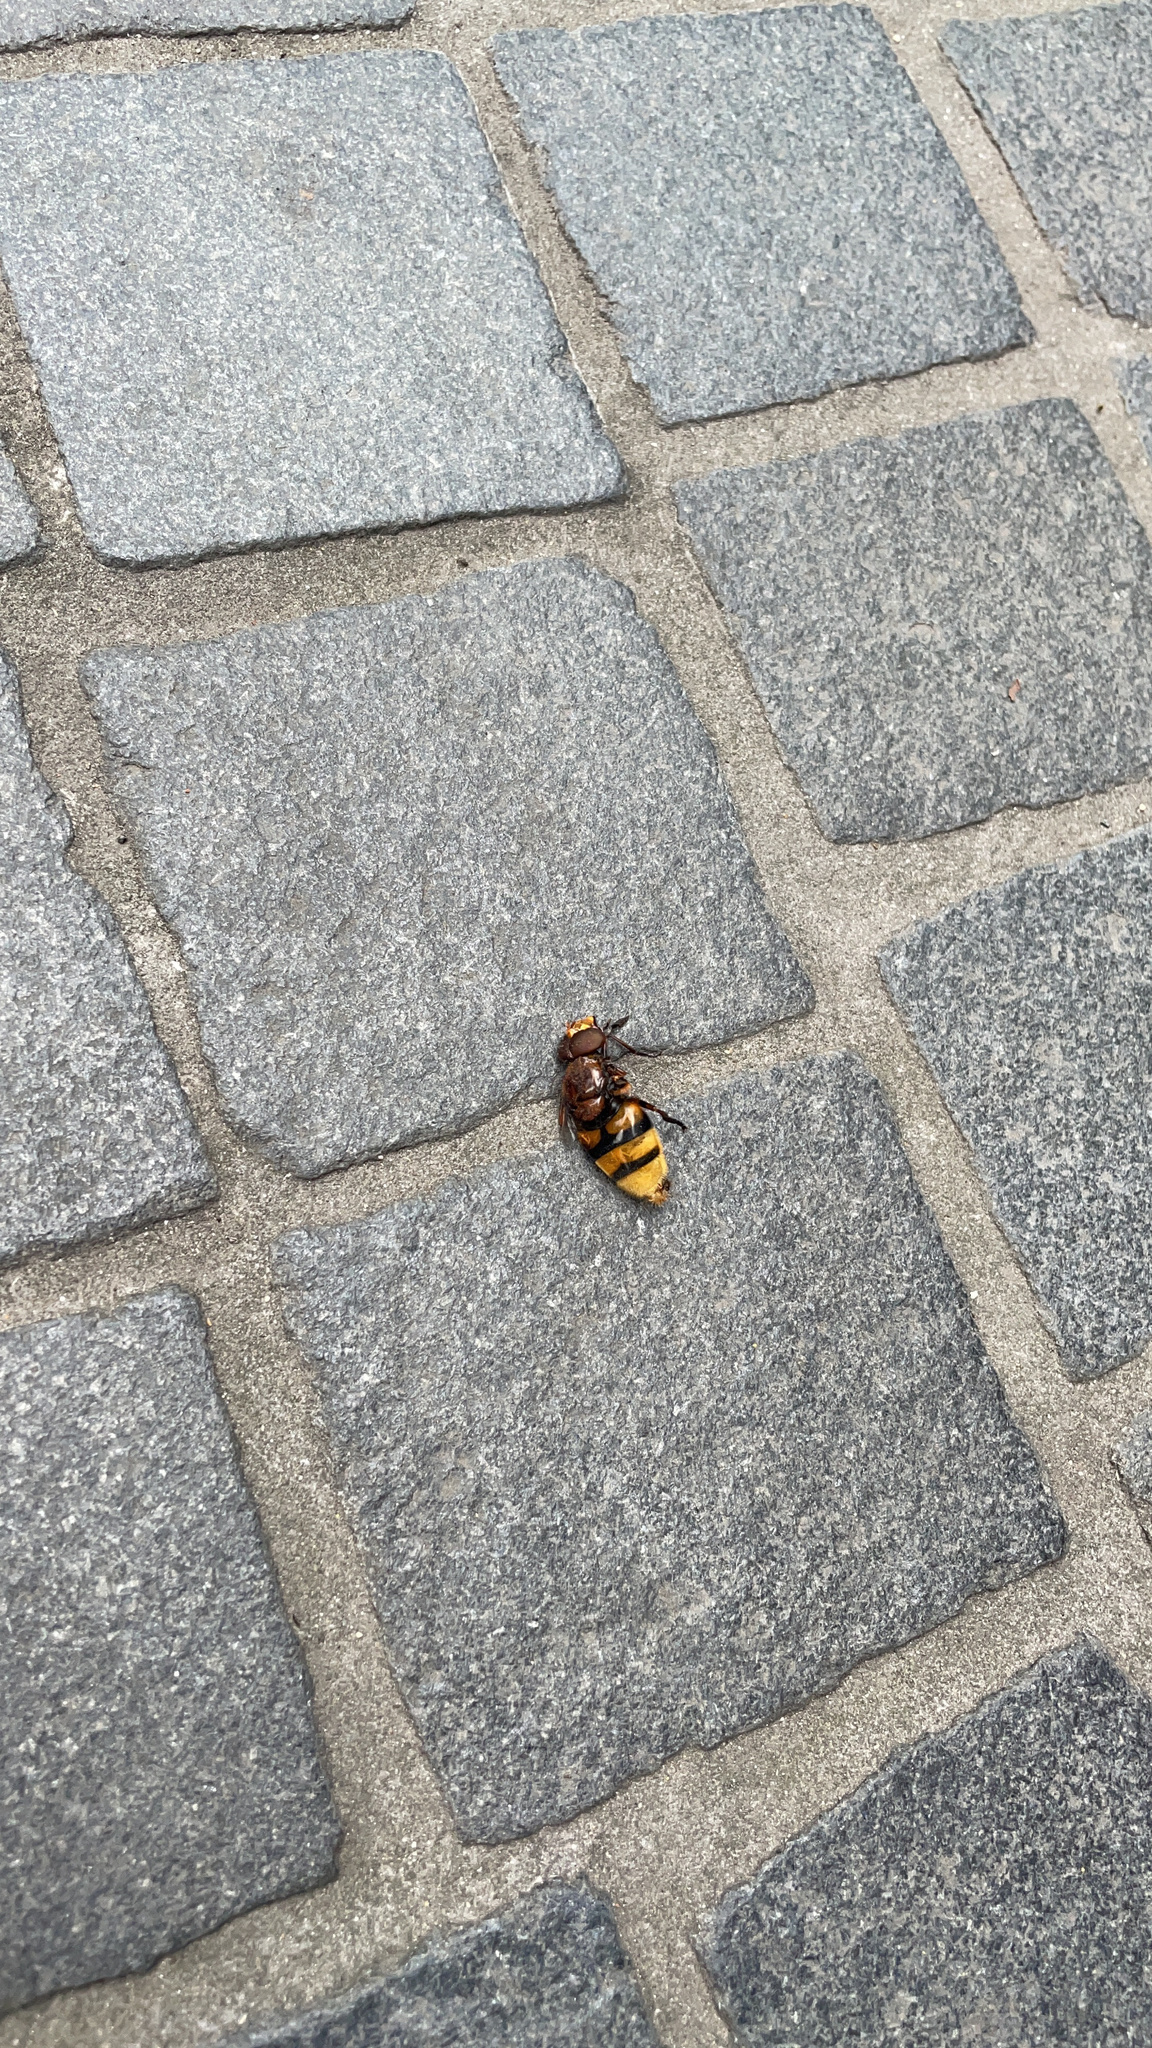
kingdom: Animalia
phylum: Arthropoda
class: Insecta
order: Diptera
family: Syrphidae
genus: Volucella
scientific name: Volucella zonaria
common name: Hornet hoverfly
